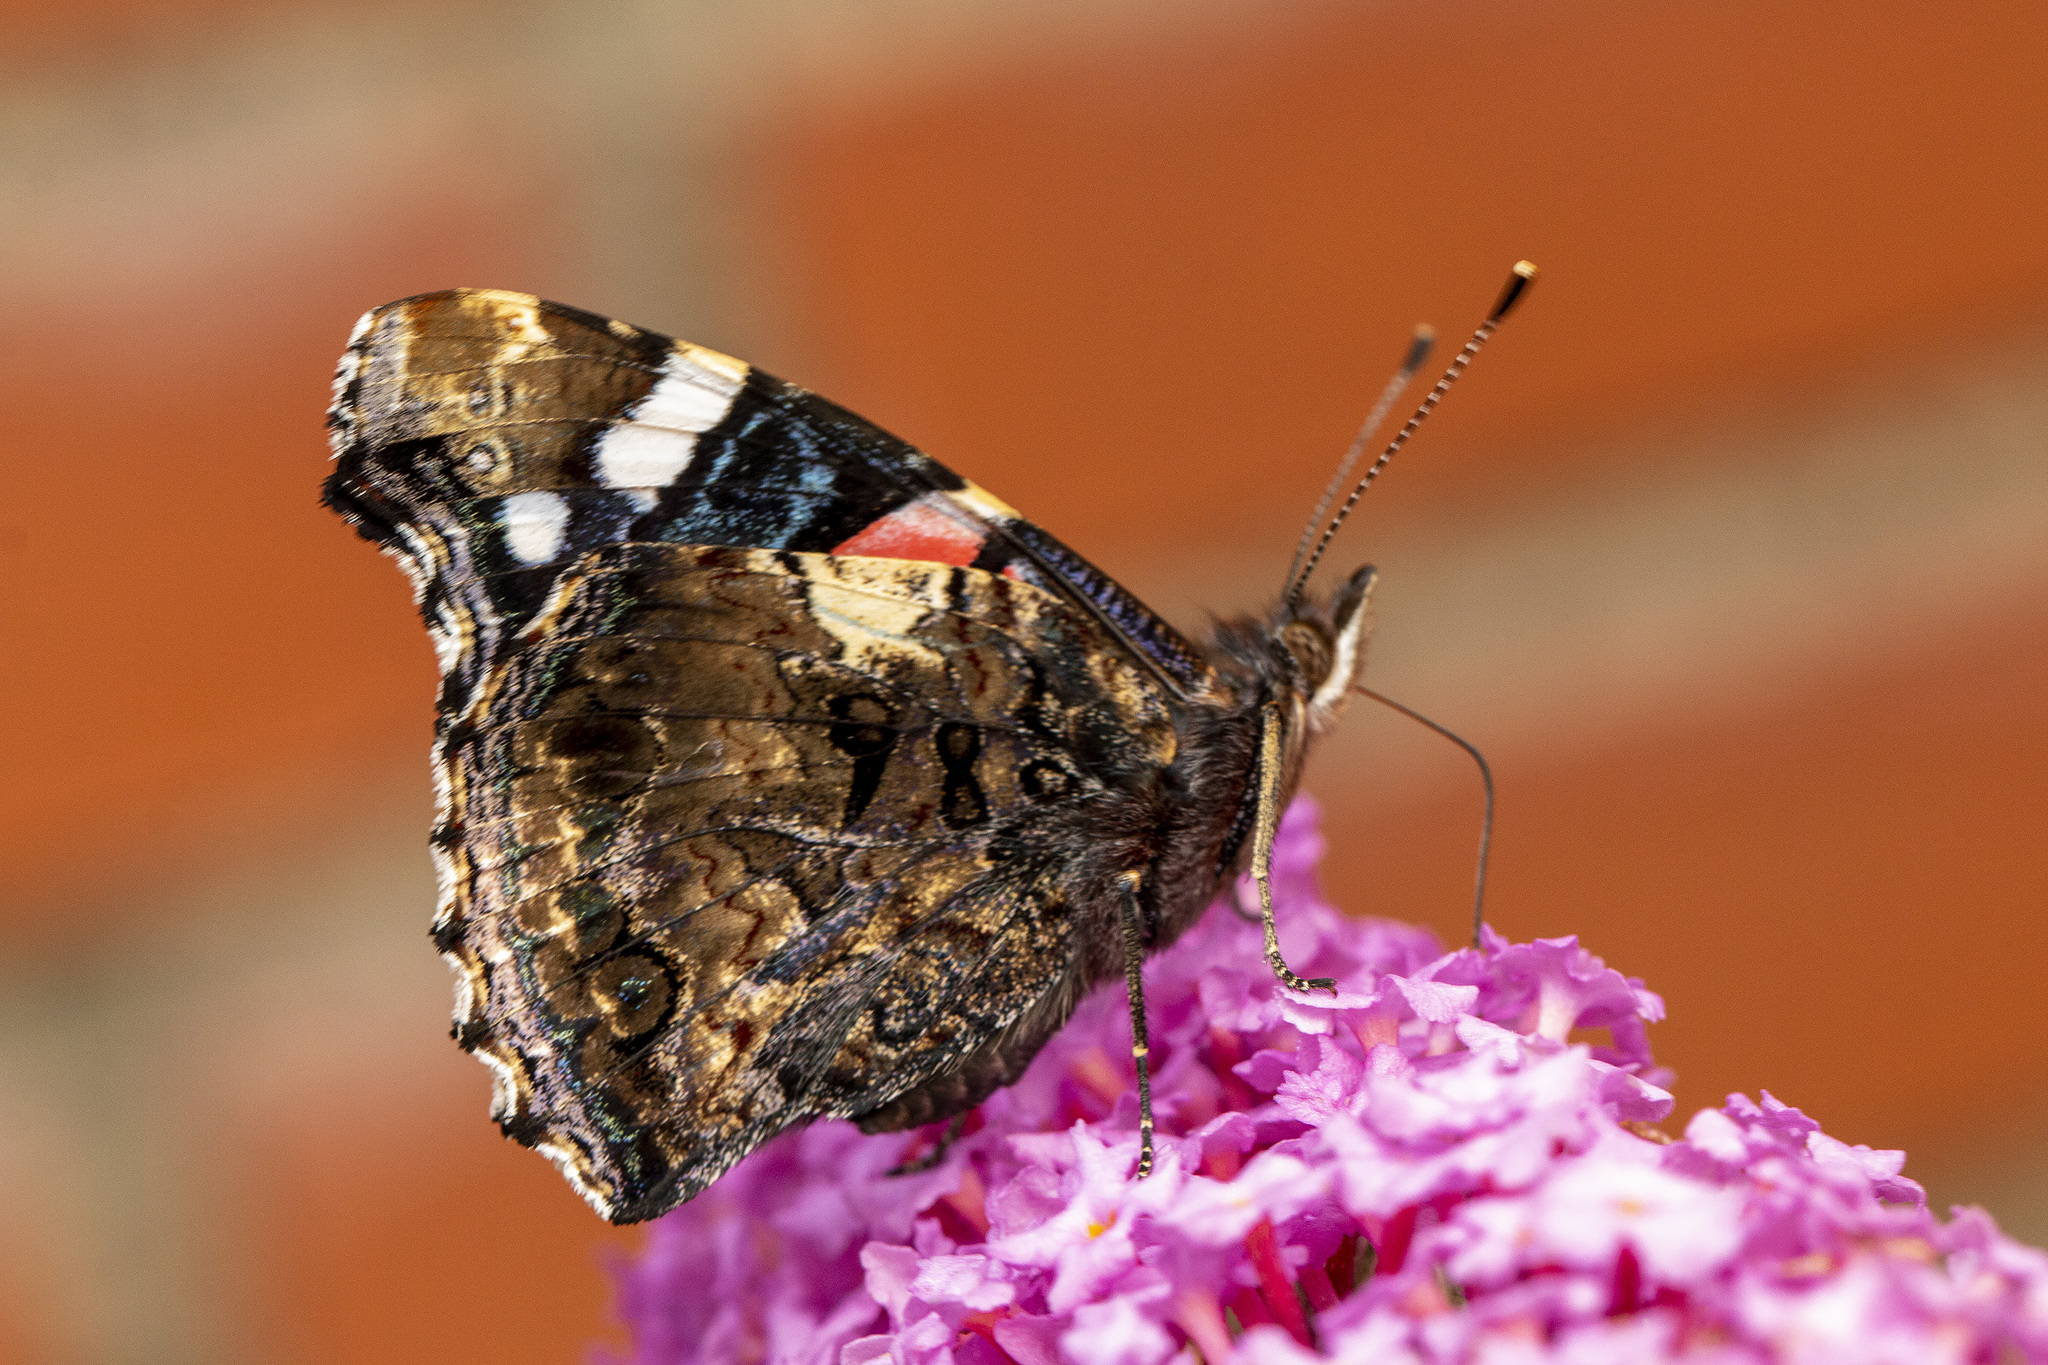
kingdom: Animalia
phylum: Arthropoda
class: Insecta
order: Lepidoptera
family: Nymphalidae
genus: Vanessa
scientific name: Vanessa atalanta
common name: Red admiral
